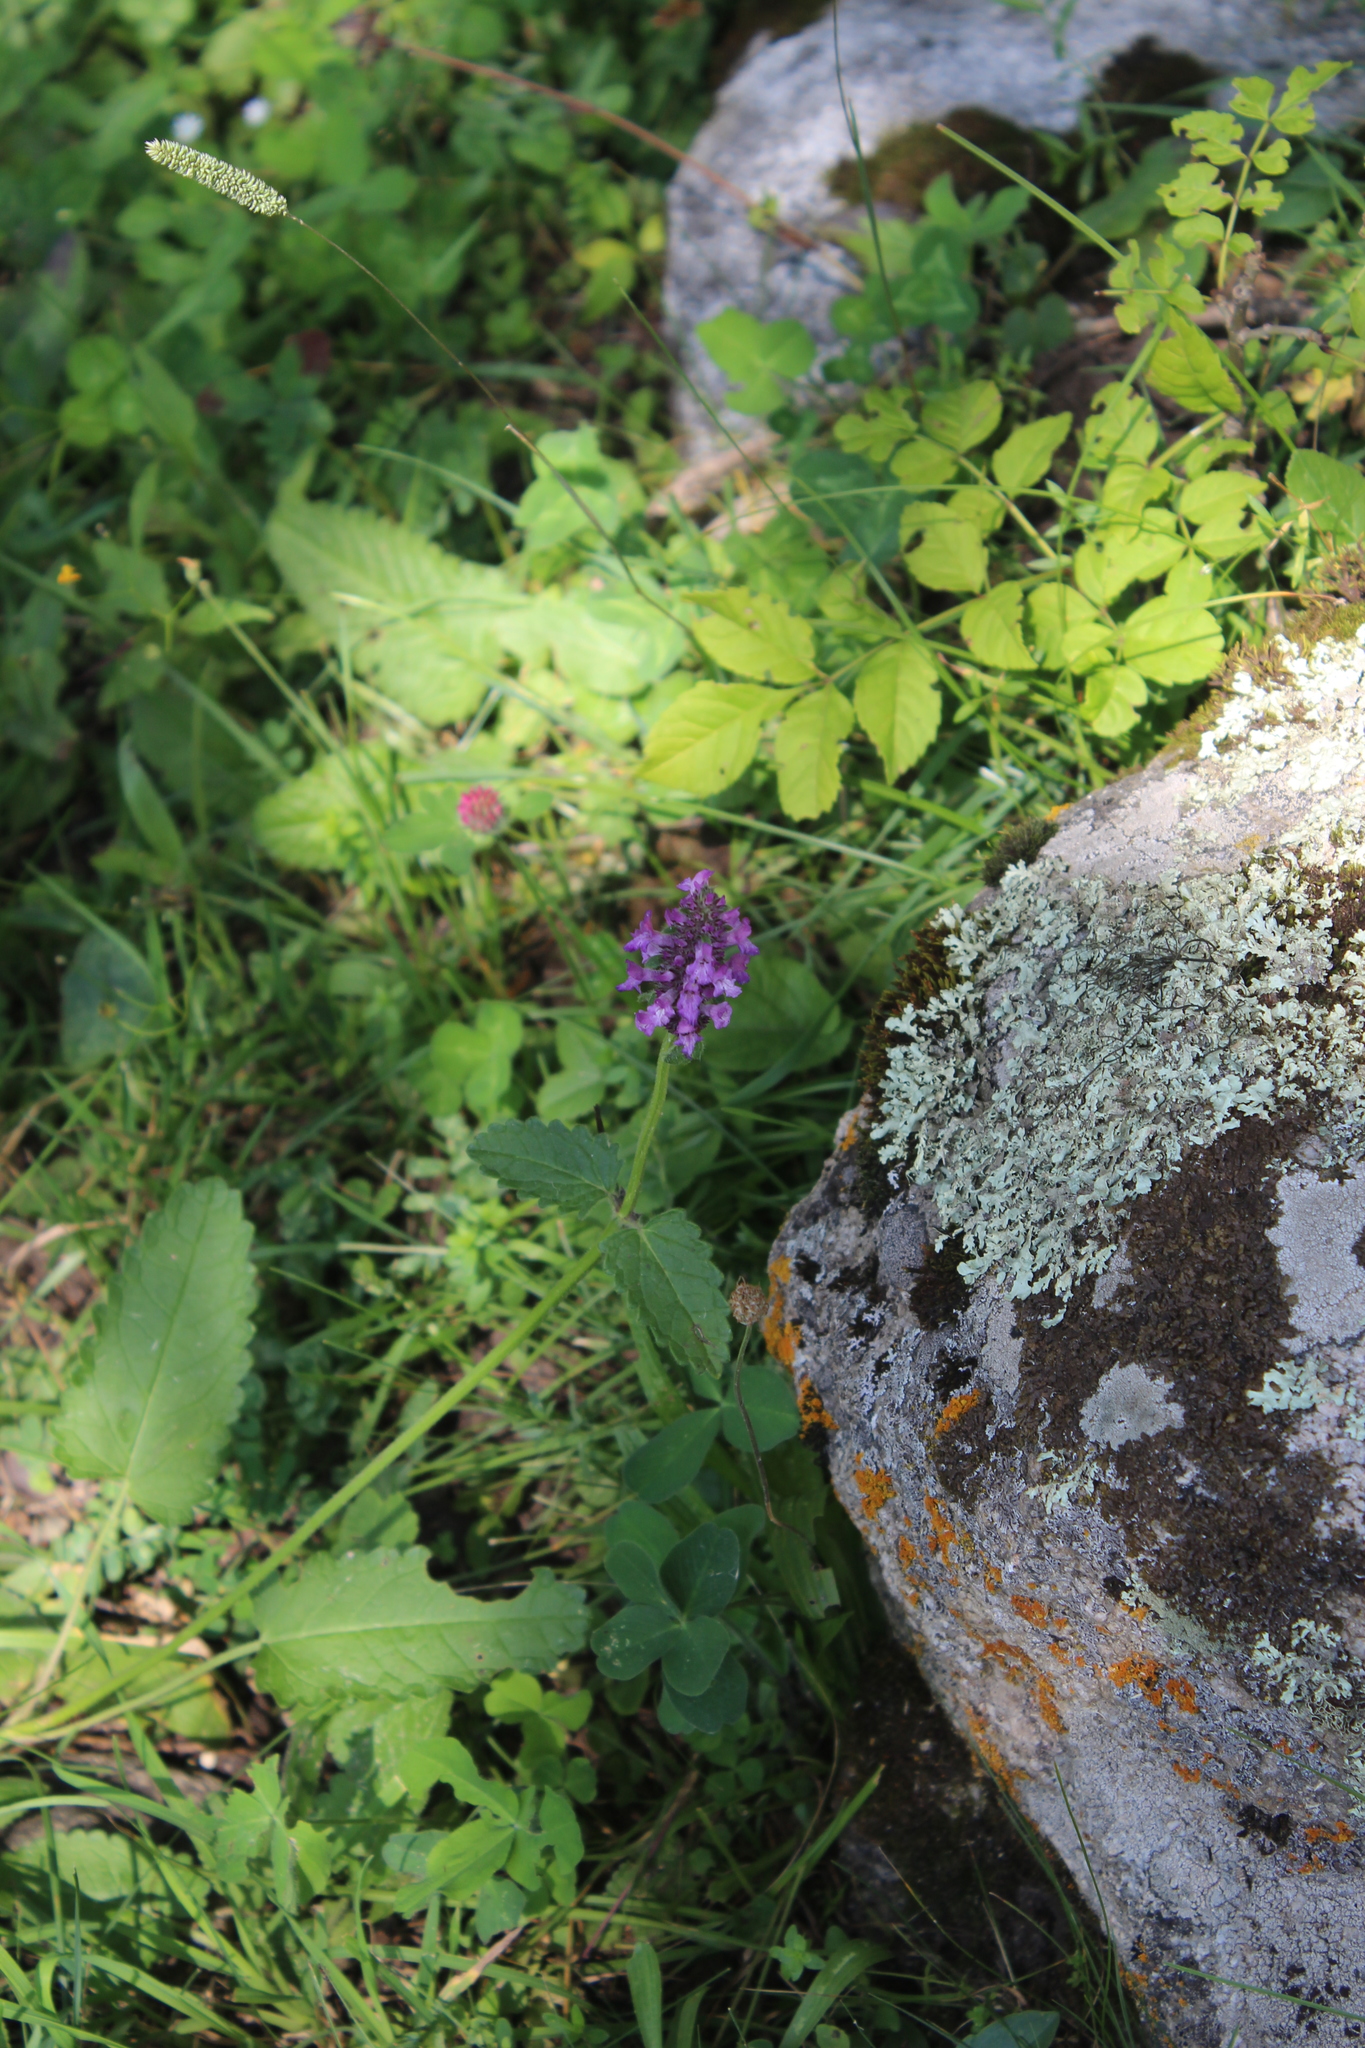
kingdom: Plantae
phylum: Tracheophyta
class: Magnoliopsida
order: Lamiales
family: Lamiaceae
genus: Betonica
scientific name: Betonica officinalis
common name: Bishop's-wort
